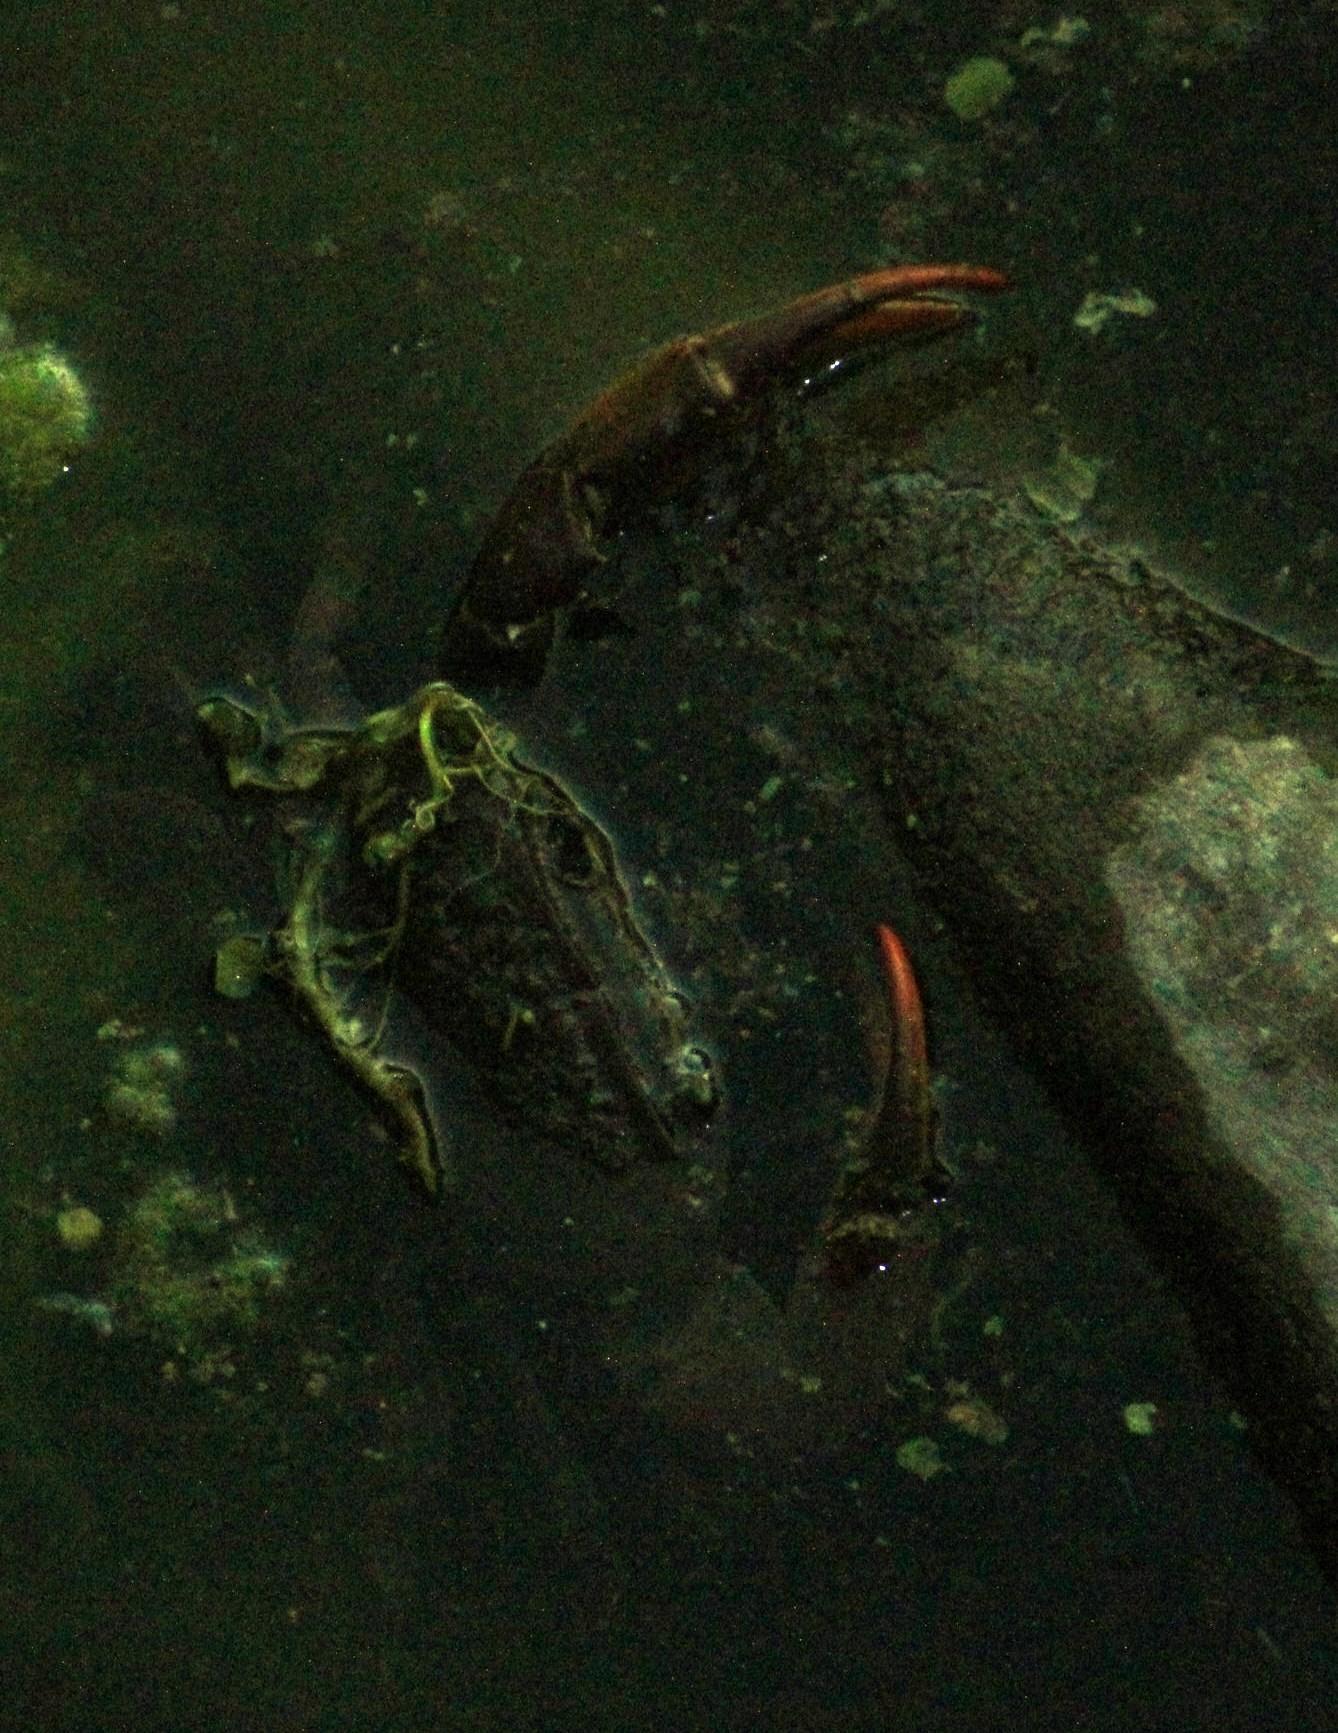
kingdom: Animalia
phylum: Arthropoda
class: Malacostraca
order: Decapoda
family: Potamonautidae
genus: Potamonautes
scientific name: Potamonautes barbarai
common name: Barbara's crab
